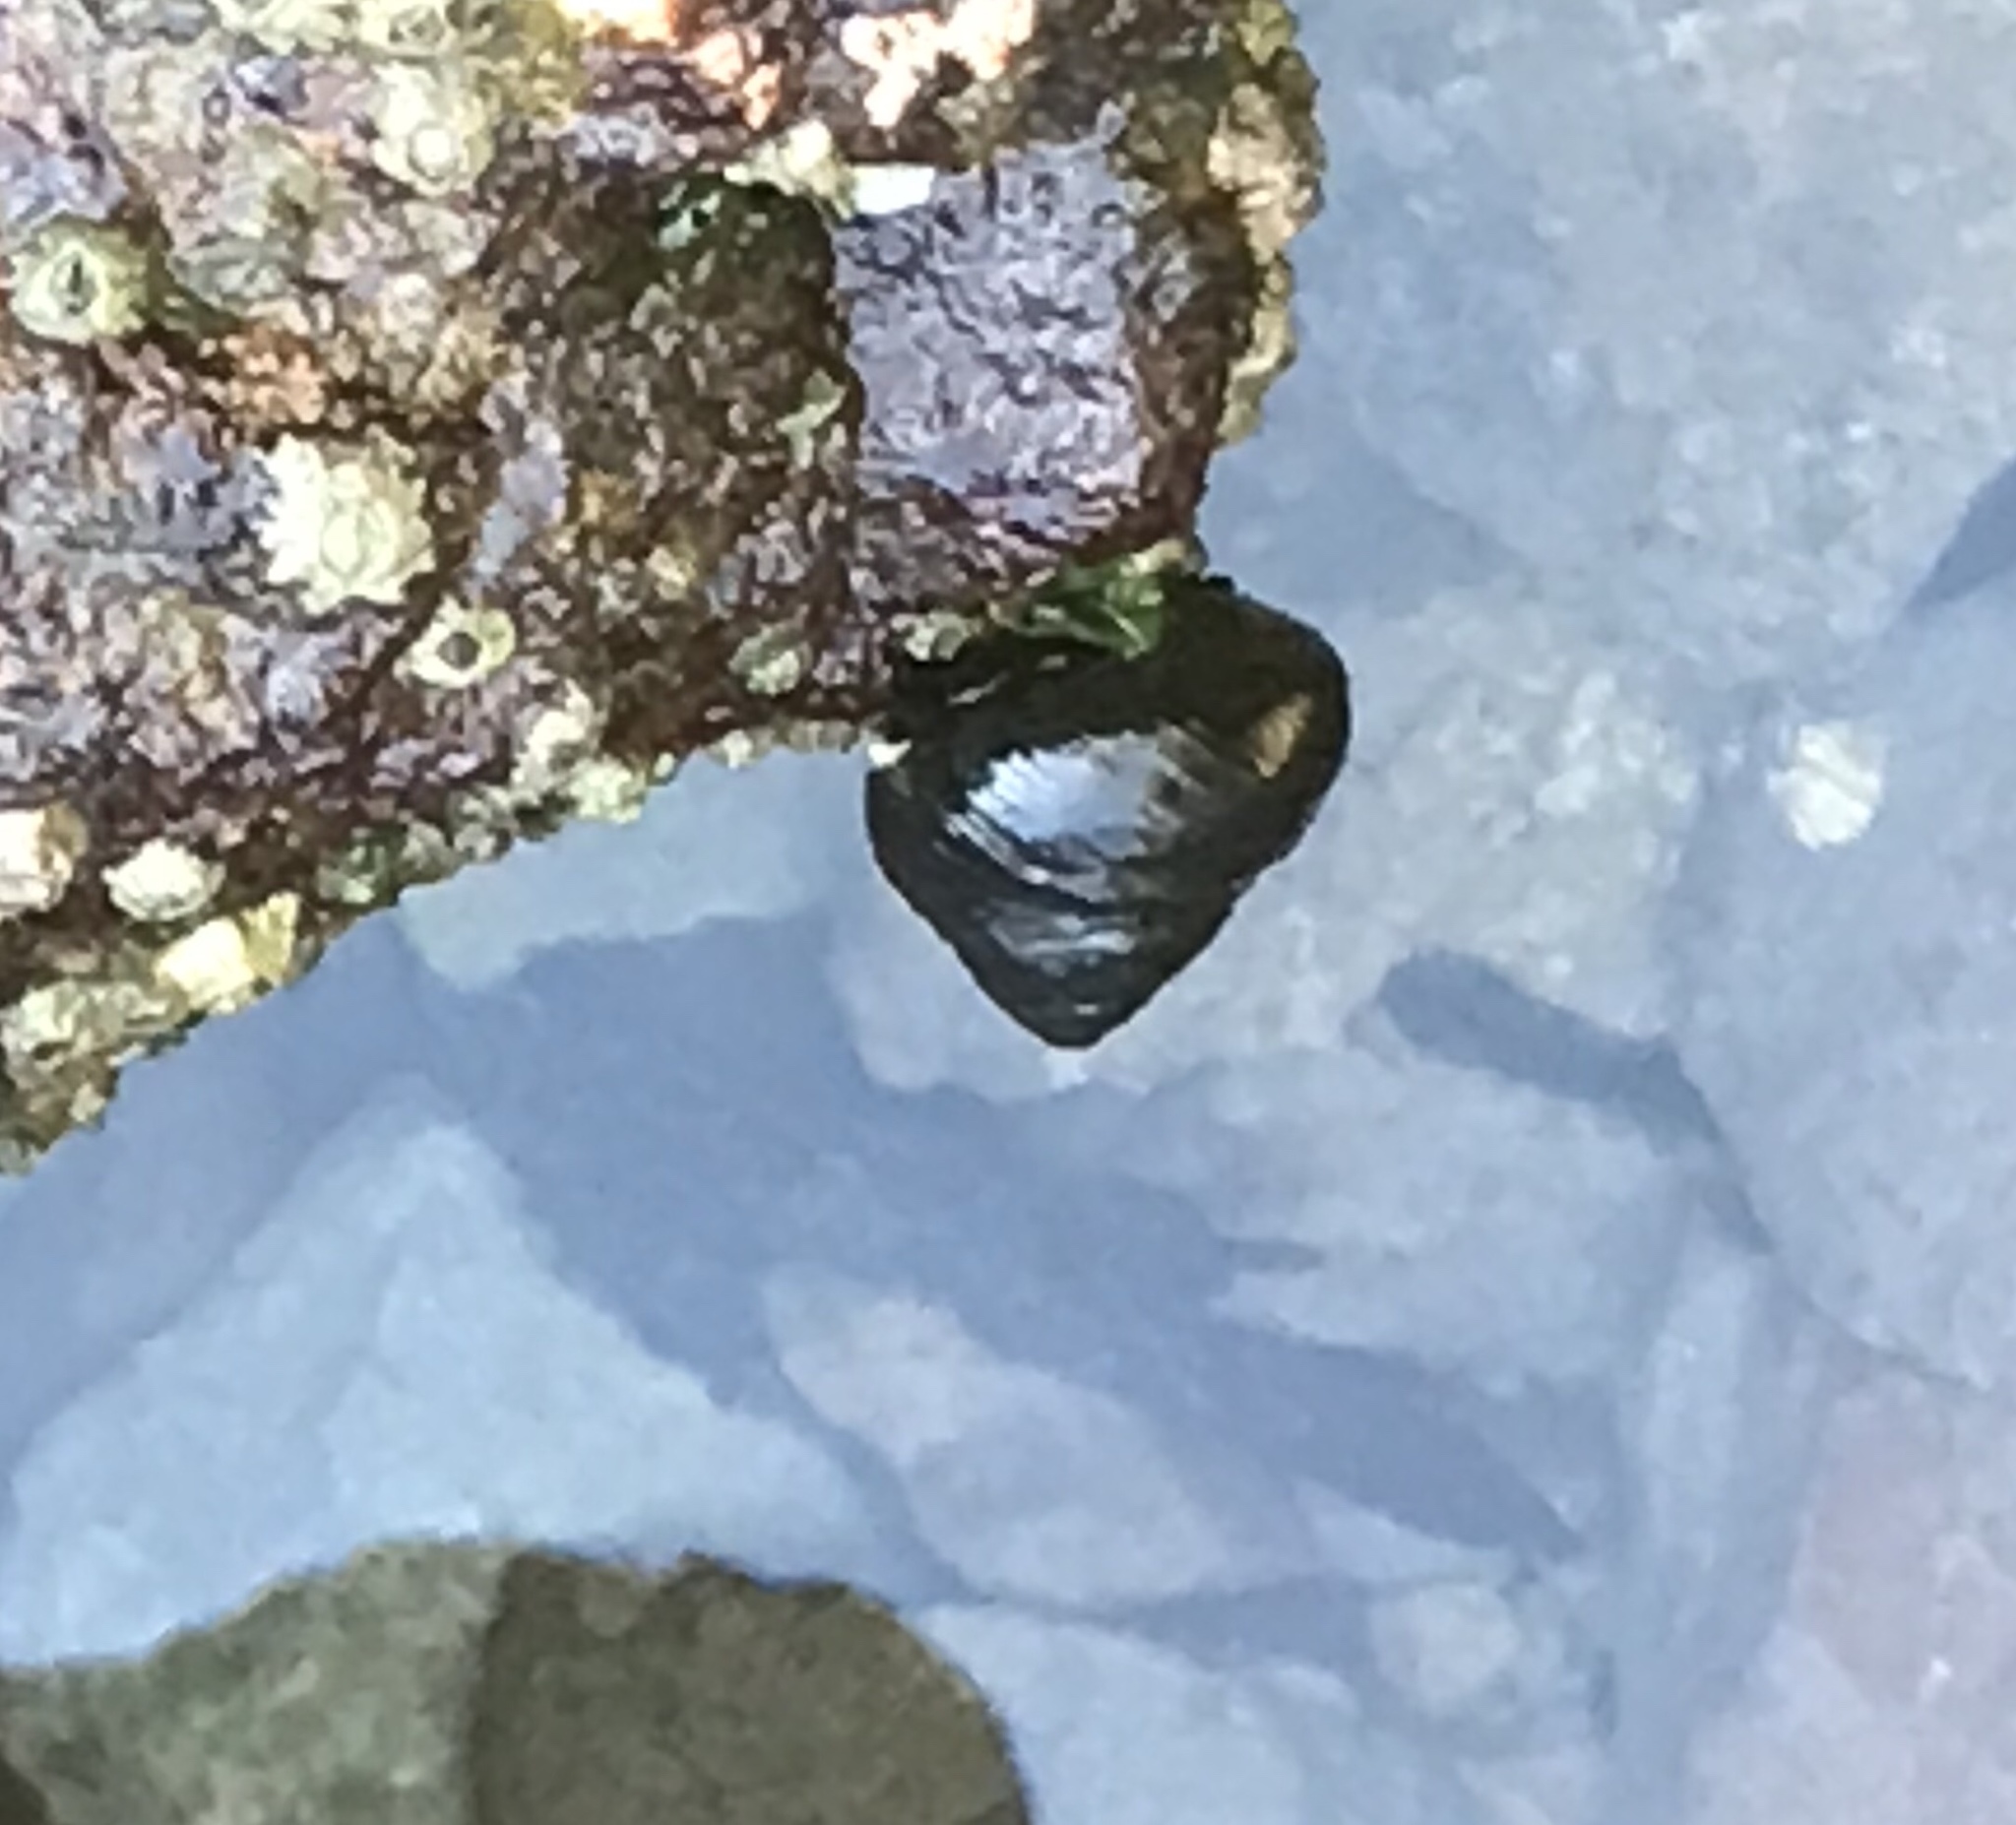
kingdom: Animalia
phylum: Mollusca
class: Gastropoda
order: Trochida
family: Tegulidae
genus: Tegula
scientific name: Tegula funebralis
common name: Black tegula
